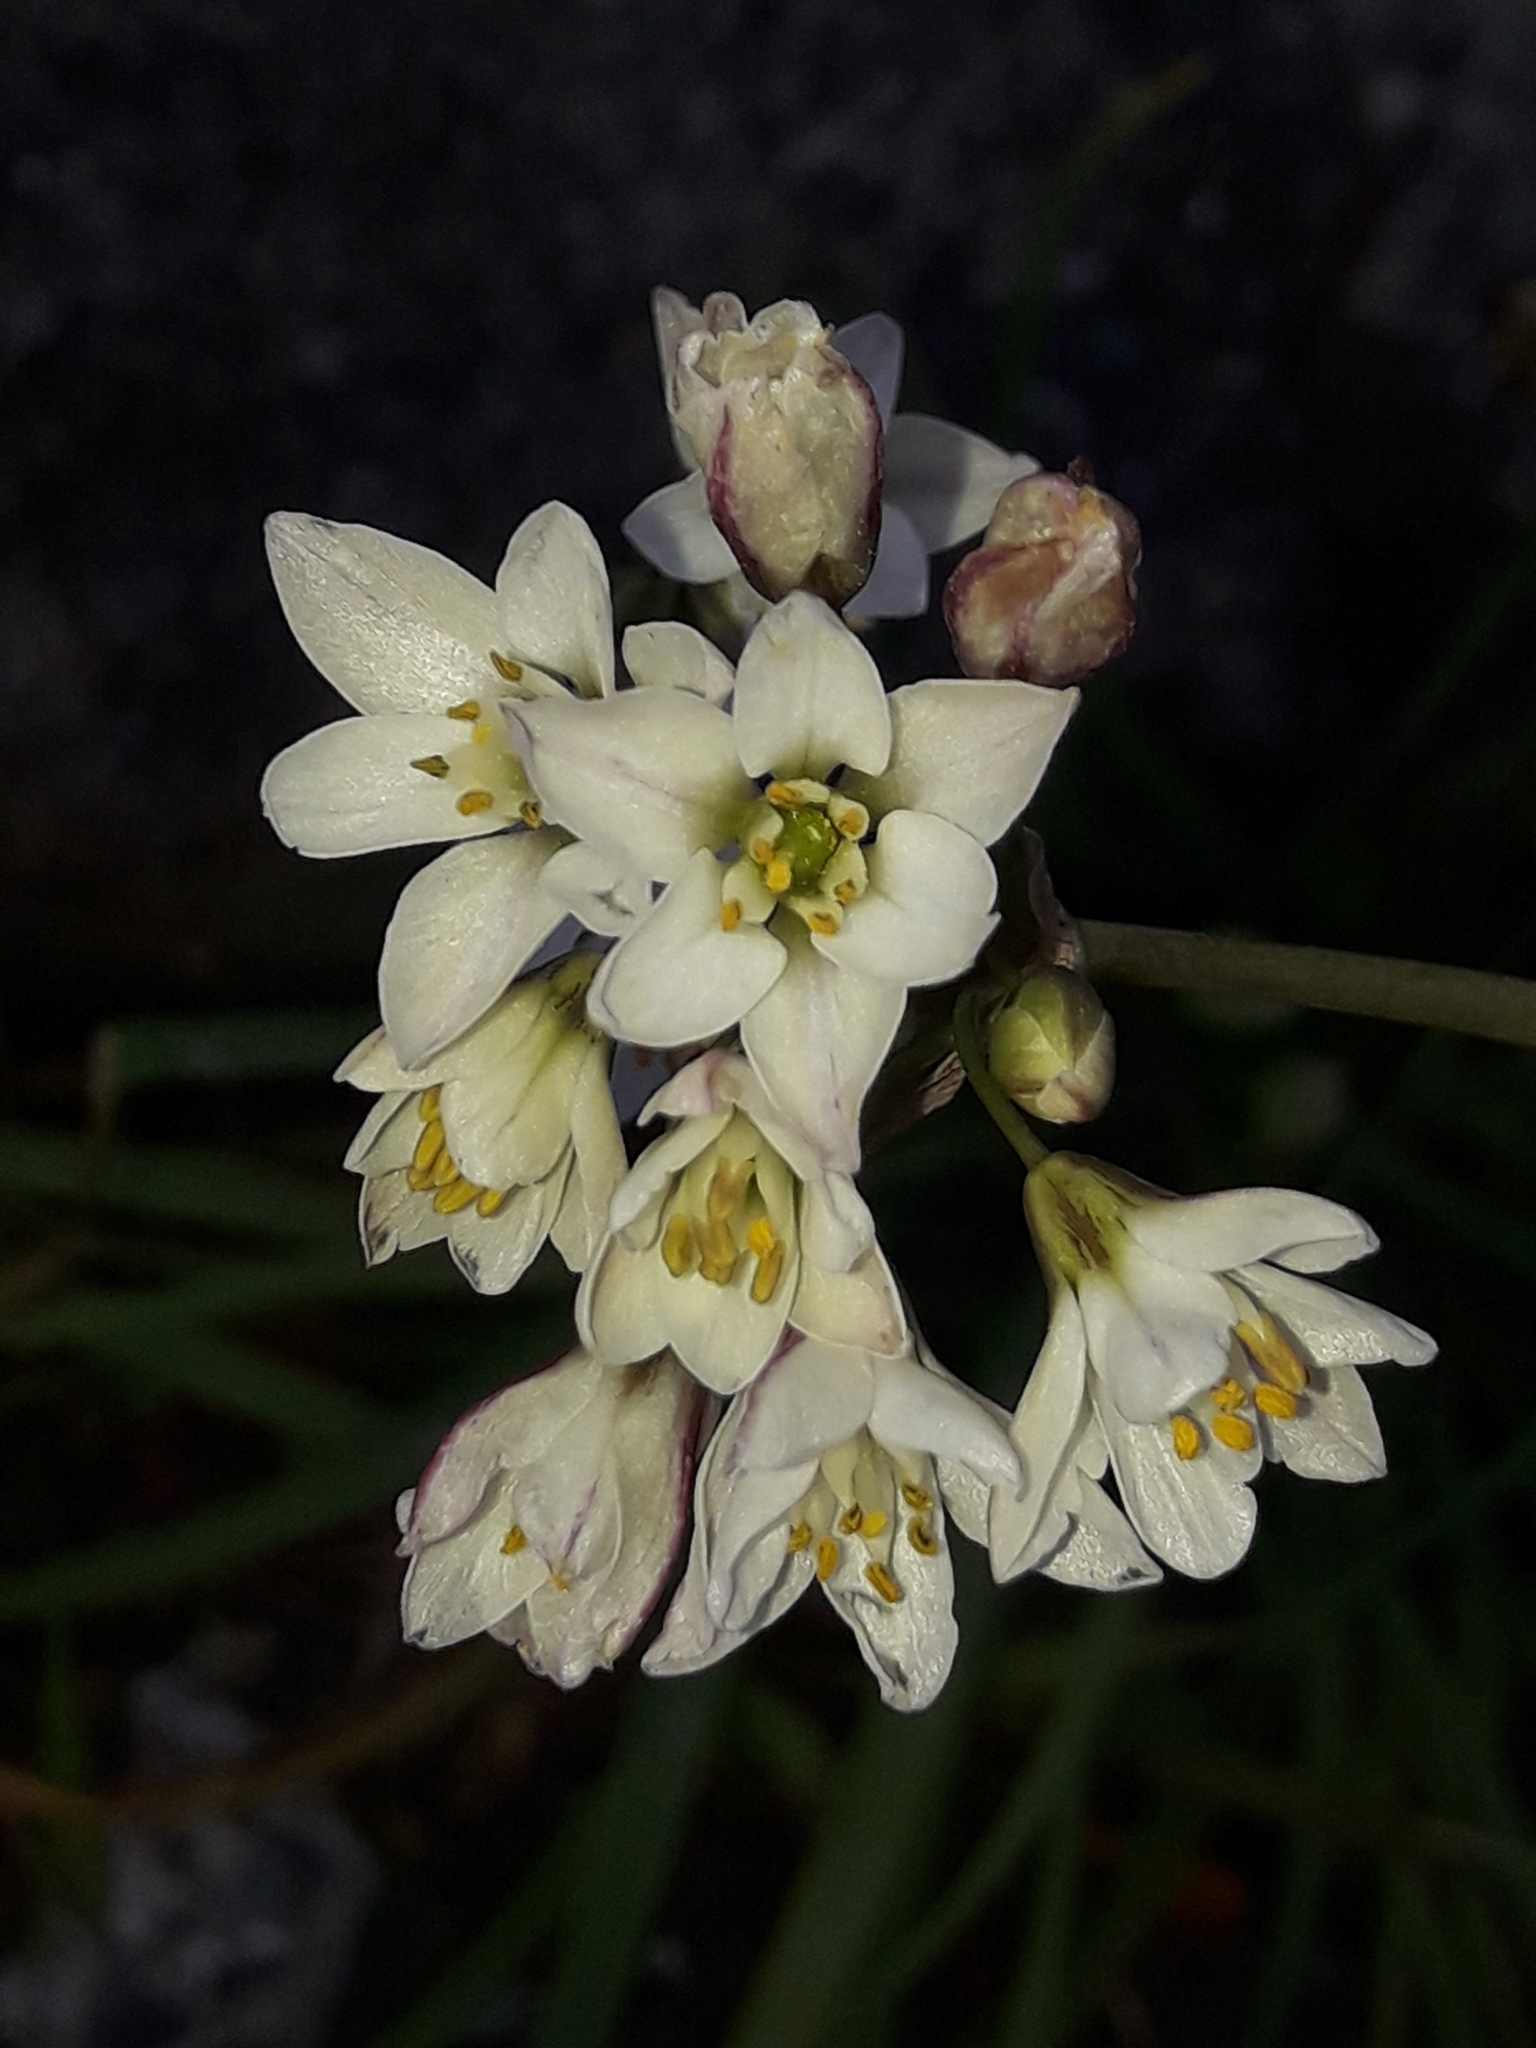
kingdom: Plantae
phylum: Tracheophyta
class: Liliopsida
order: Asparagales
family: Amaryllidaceae
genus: Nothoscordum
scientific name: Nothoscordum gracile
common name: Slender false garlic
